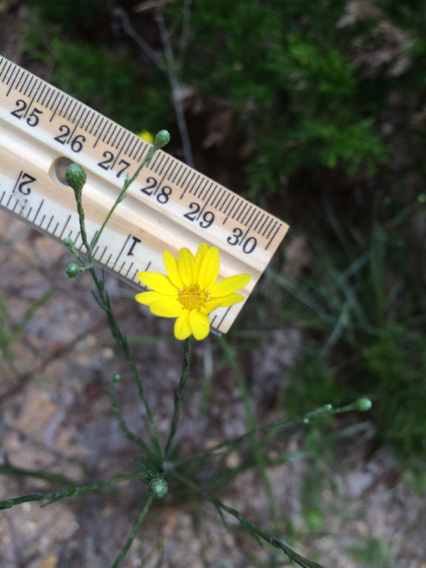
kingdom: Plantae
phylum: Tracheophyta
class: Magnoliopsida
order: Asterales
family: Asteraceae
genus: Pityopsis
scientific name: Pityopsis graminifolia
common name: Grass-leaf golden-aster
